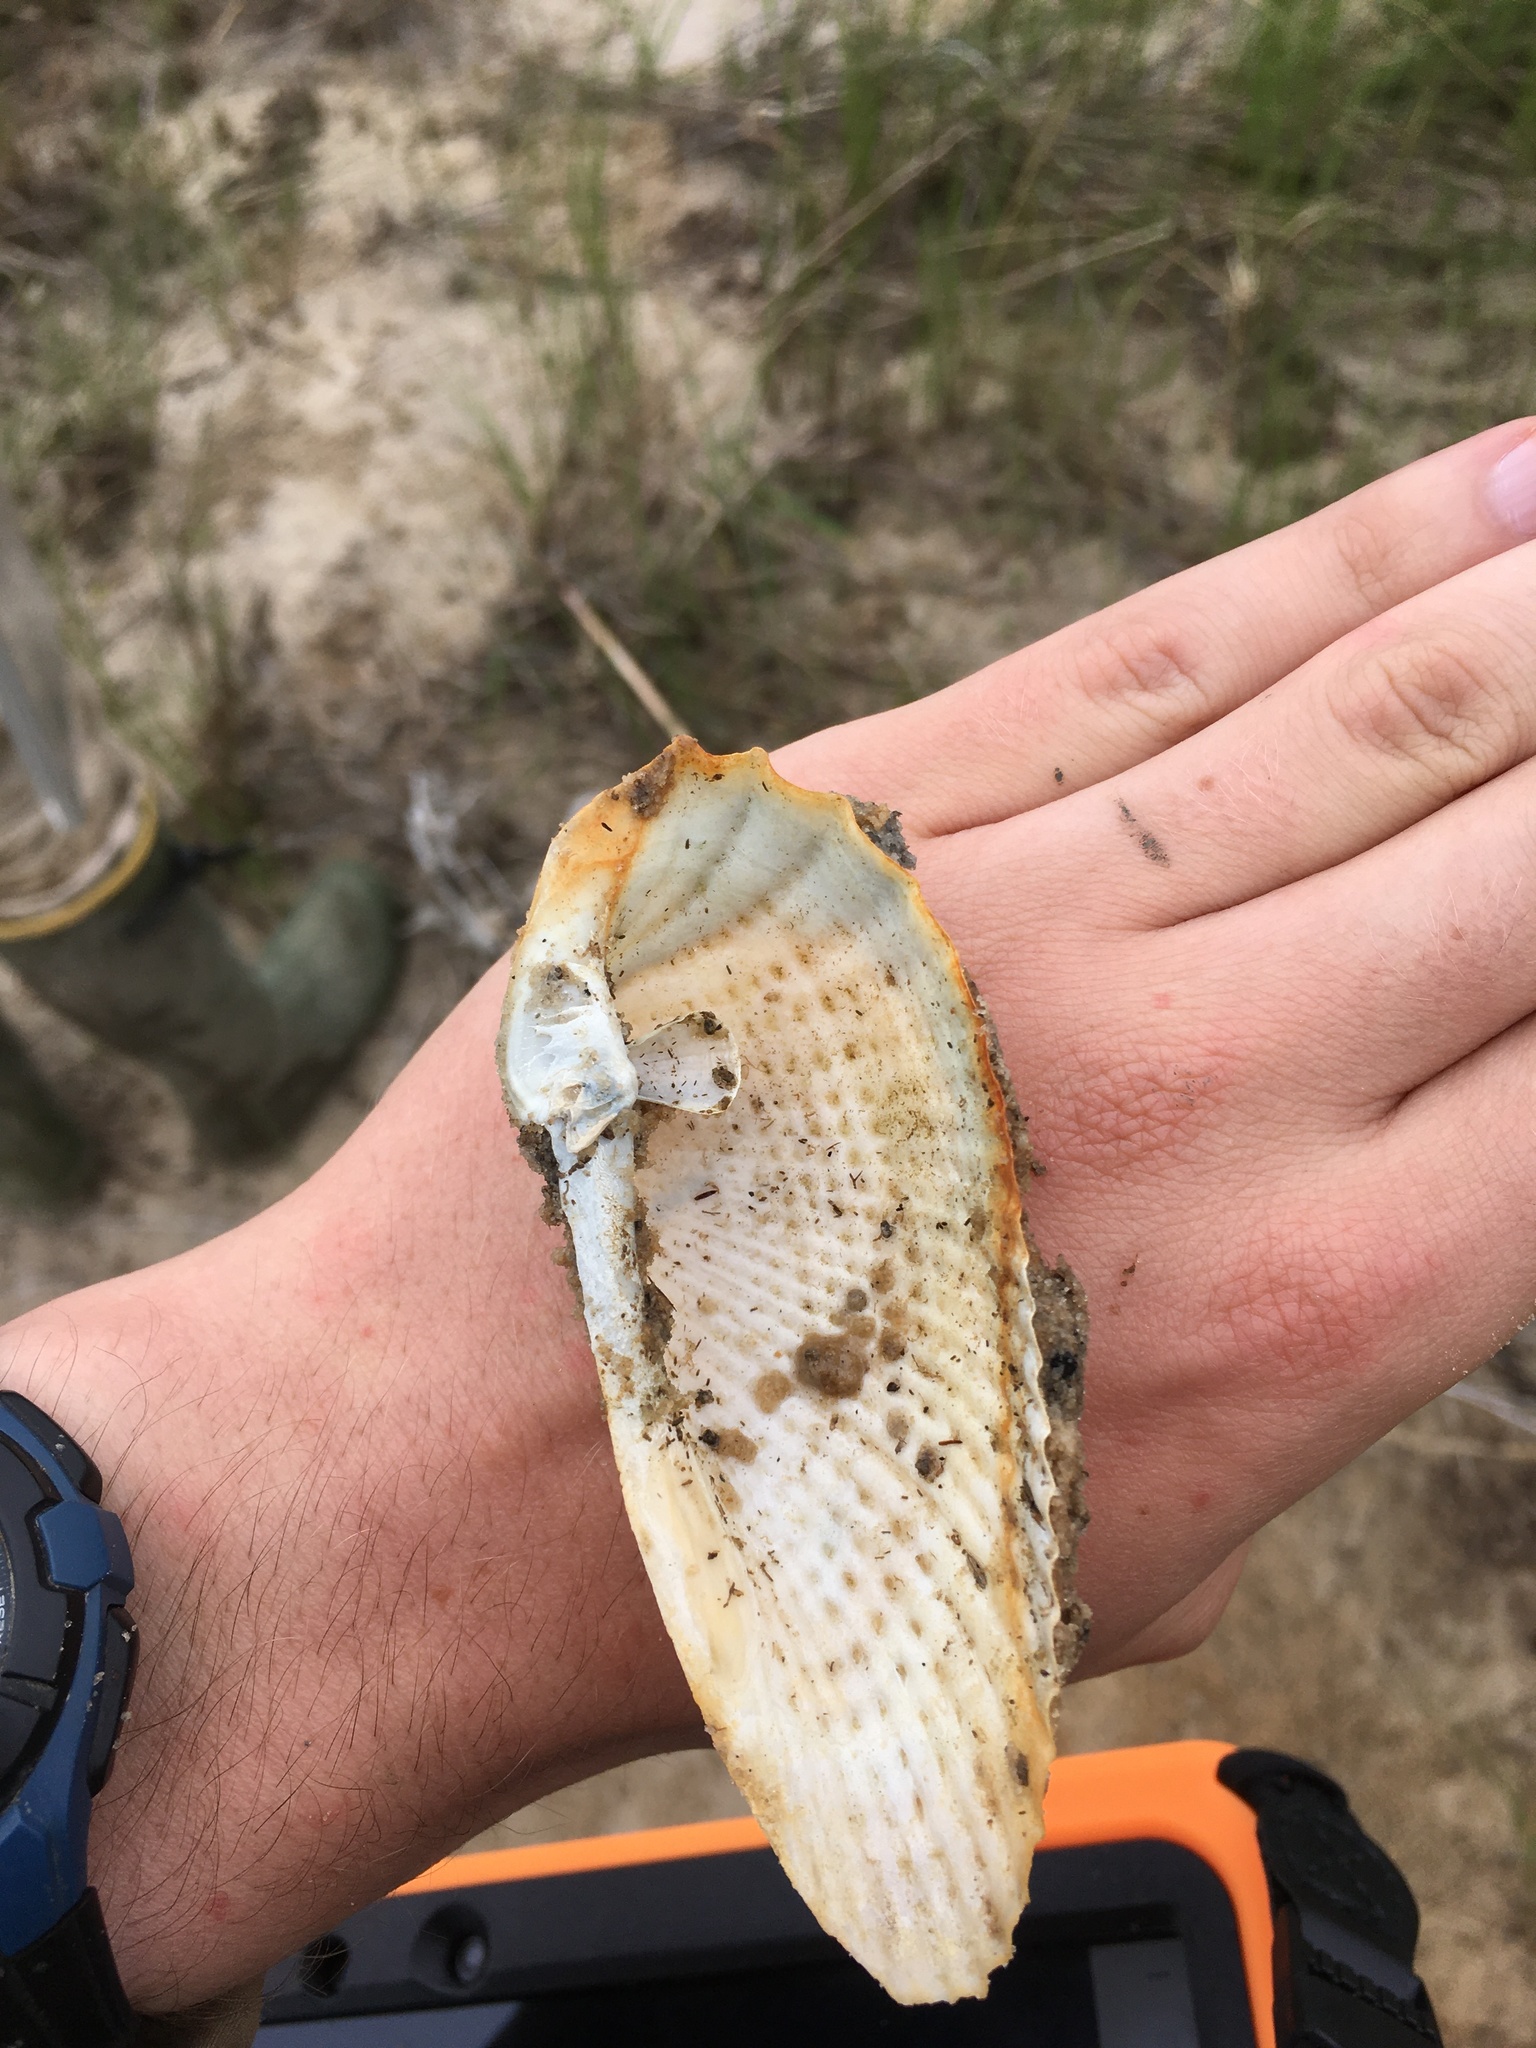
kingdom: Animalia
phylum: Mollusca
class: Bivalvia
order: Myida
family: Pholadidae
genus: Cyrtopleura
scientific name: Cyrtopleura costata
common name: Angel wing
